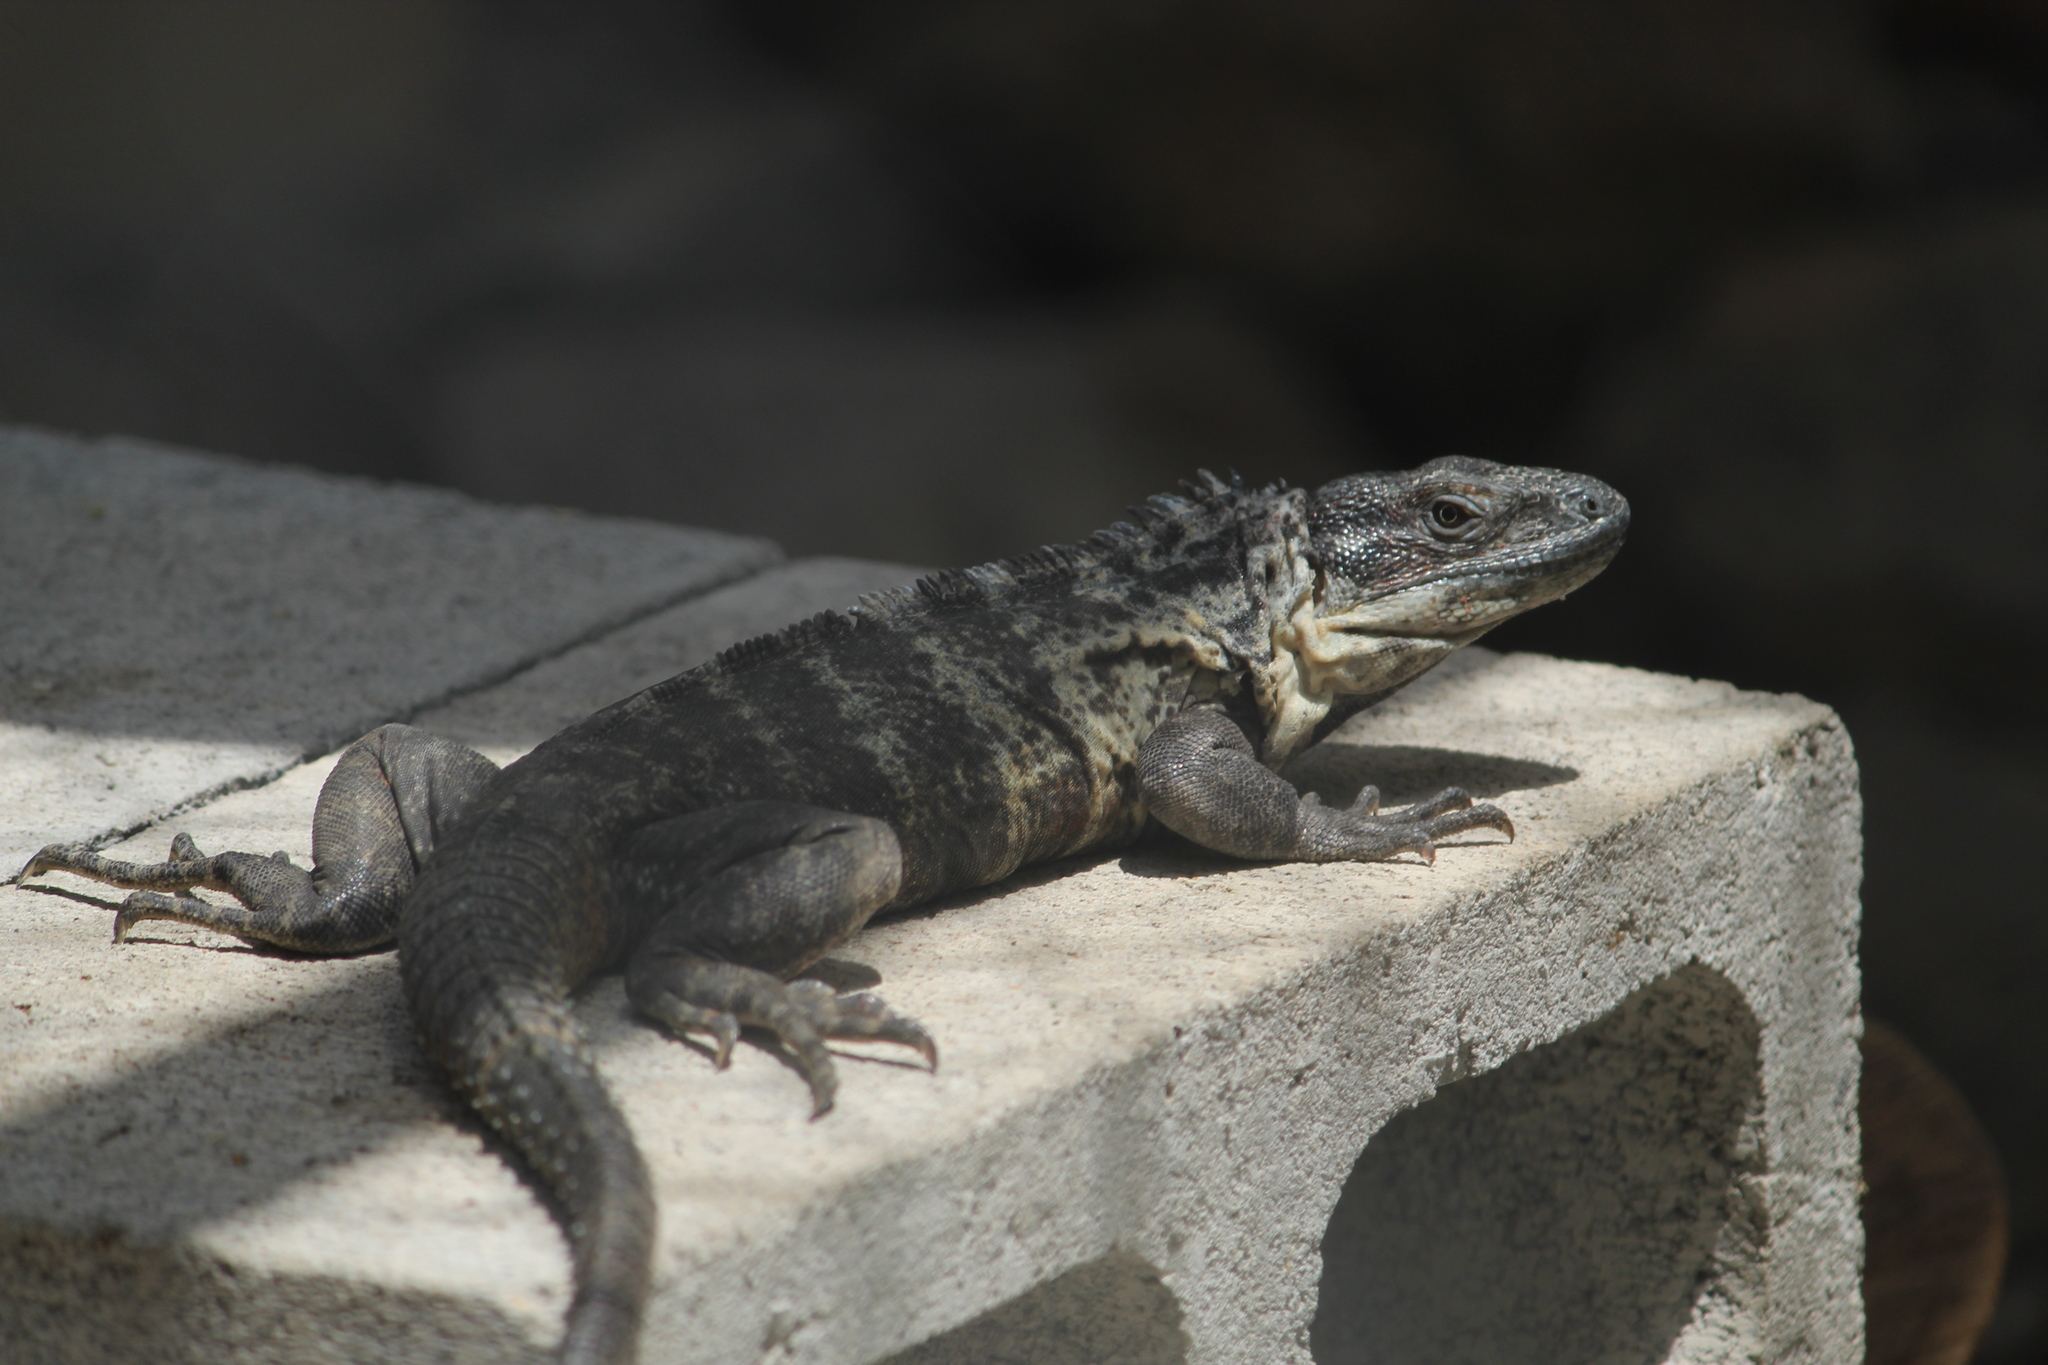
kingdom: Animalia
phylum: Chordata
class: Squamata
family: Iguanidae
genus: Ctenosaura
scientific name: Ctenosaura pectinata
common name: Guerreran spiny-tailed iguana
